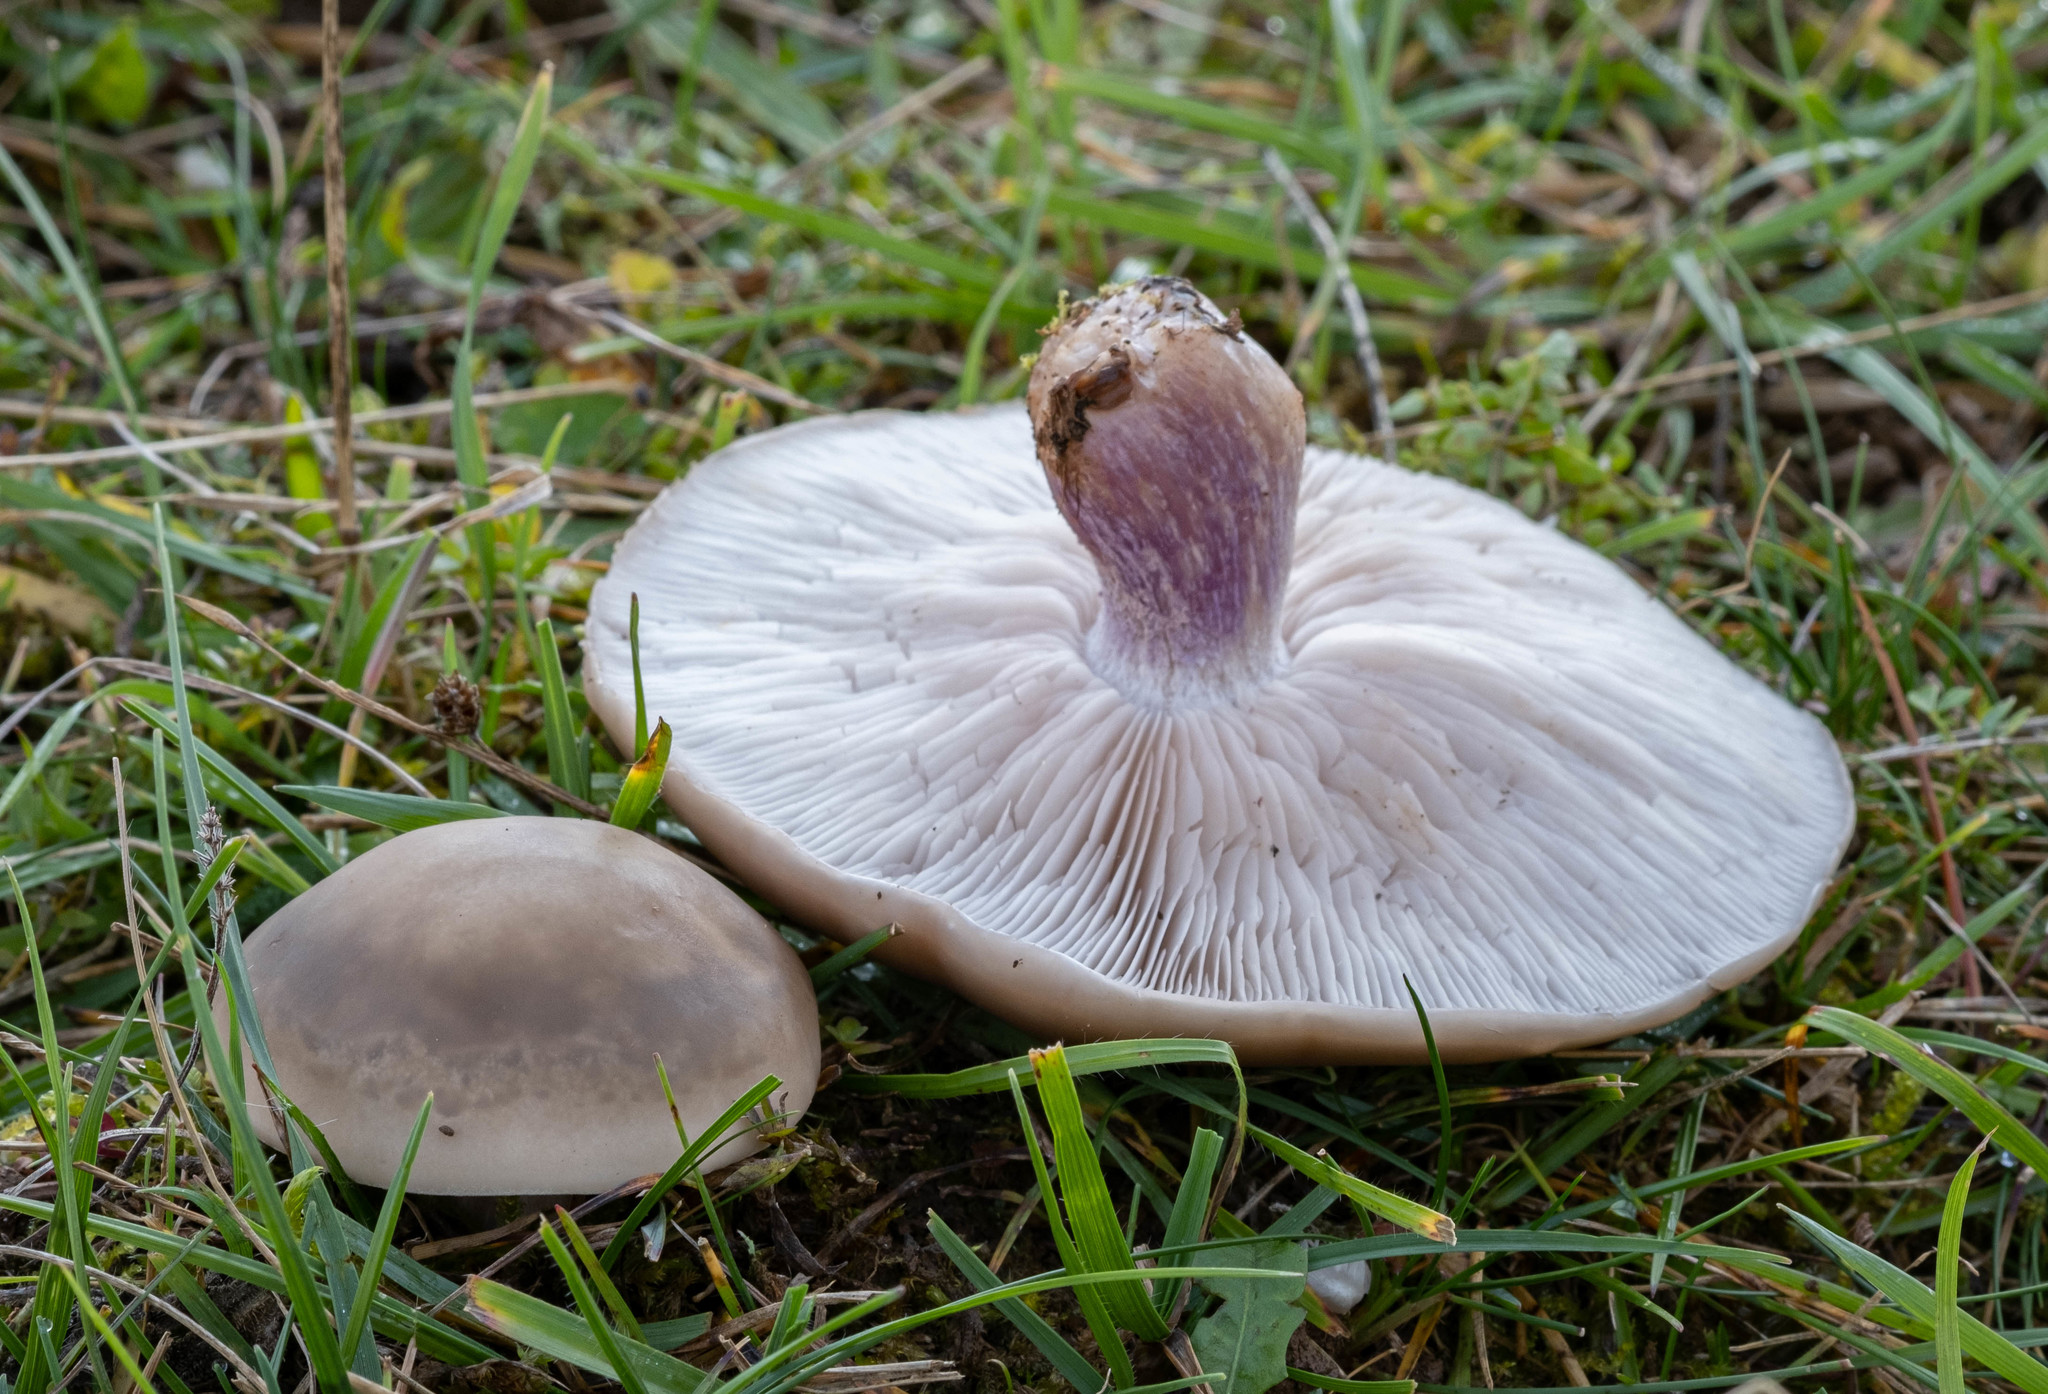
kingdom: Fungi
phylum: Basidiomycota
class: Agaricomycetes
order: Agaricales
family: Omphalotaceae
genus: Collybiopsis
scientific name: Collybiopsis peronata
